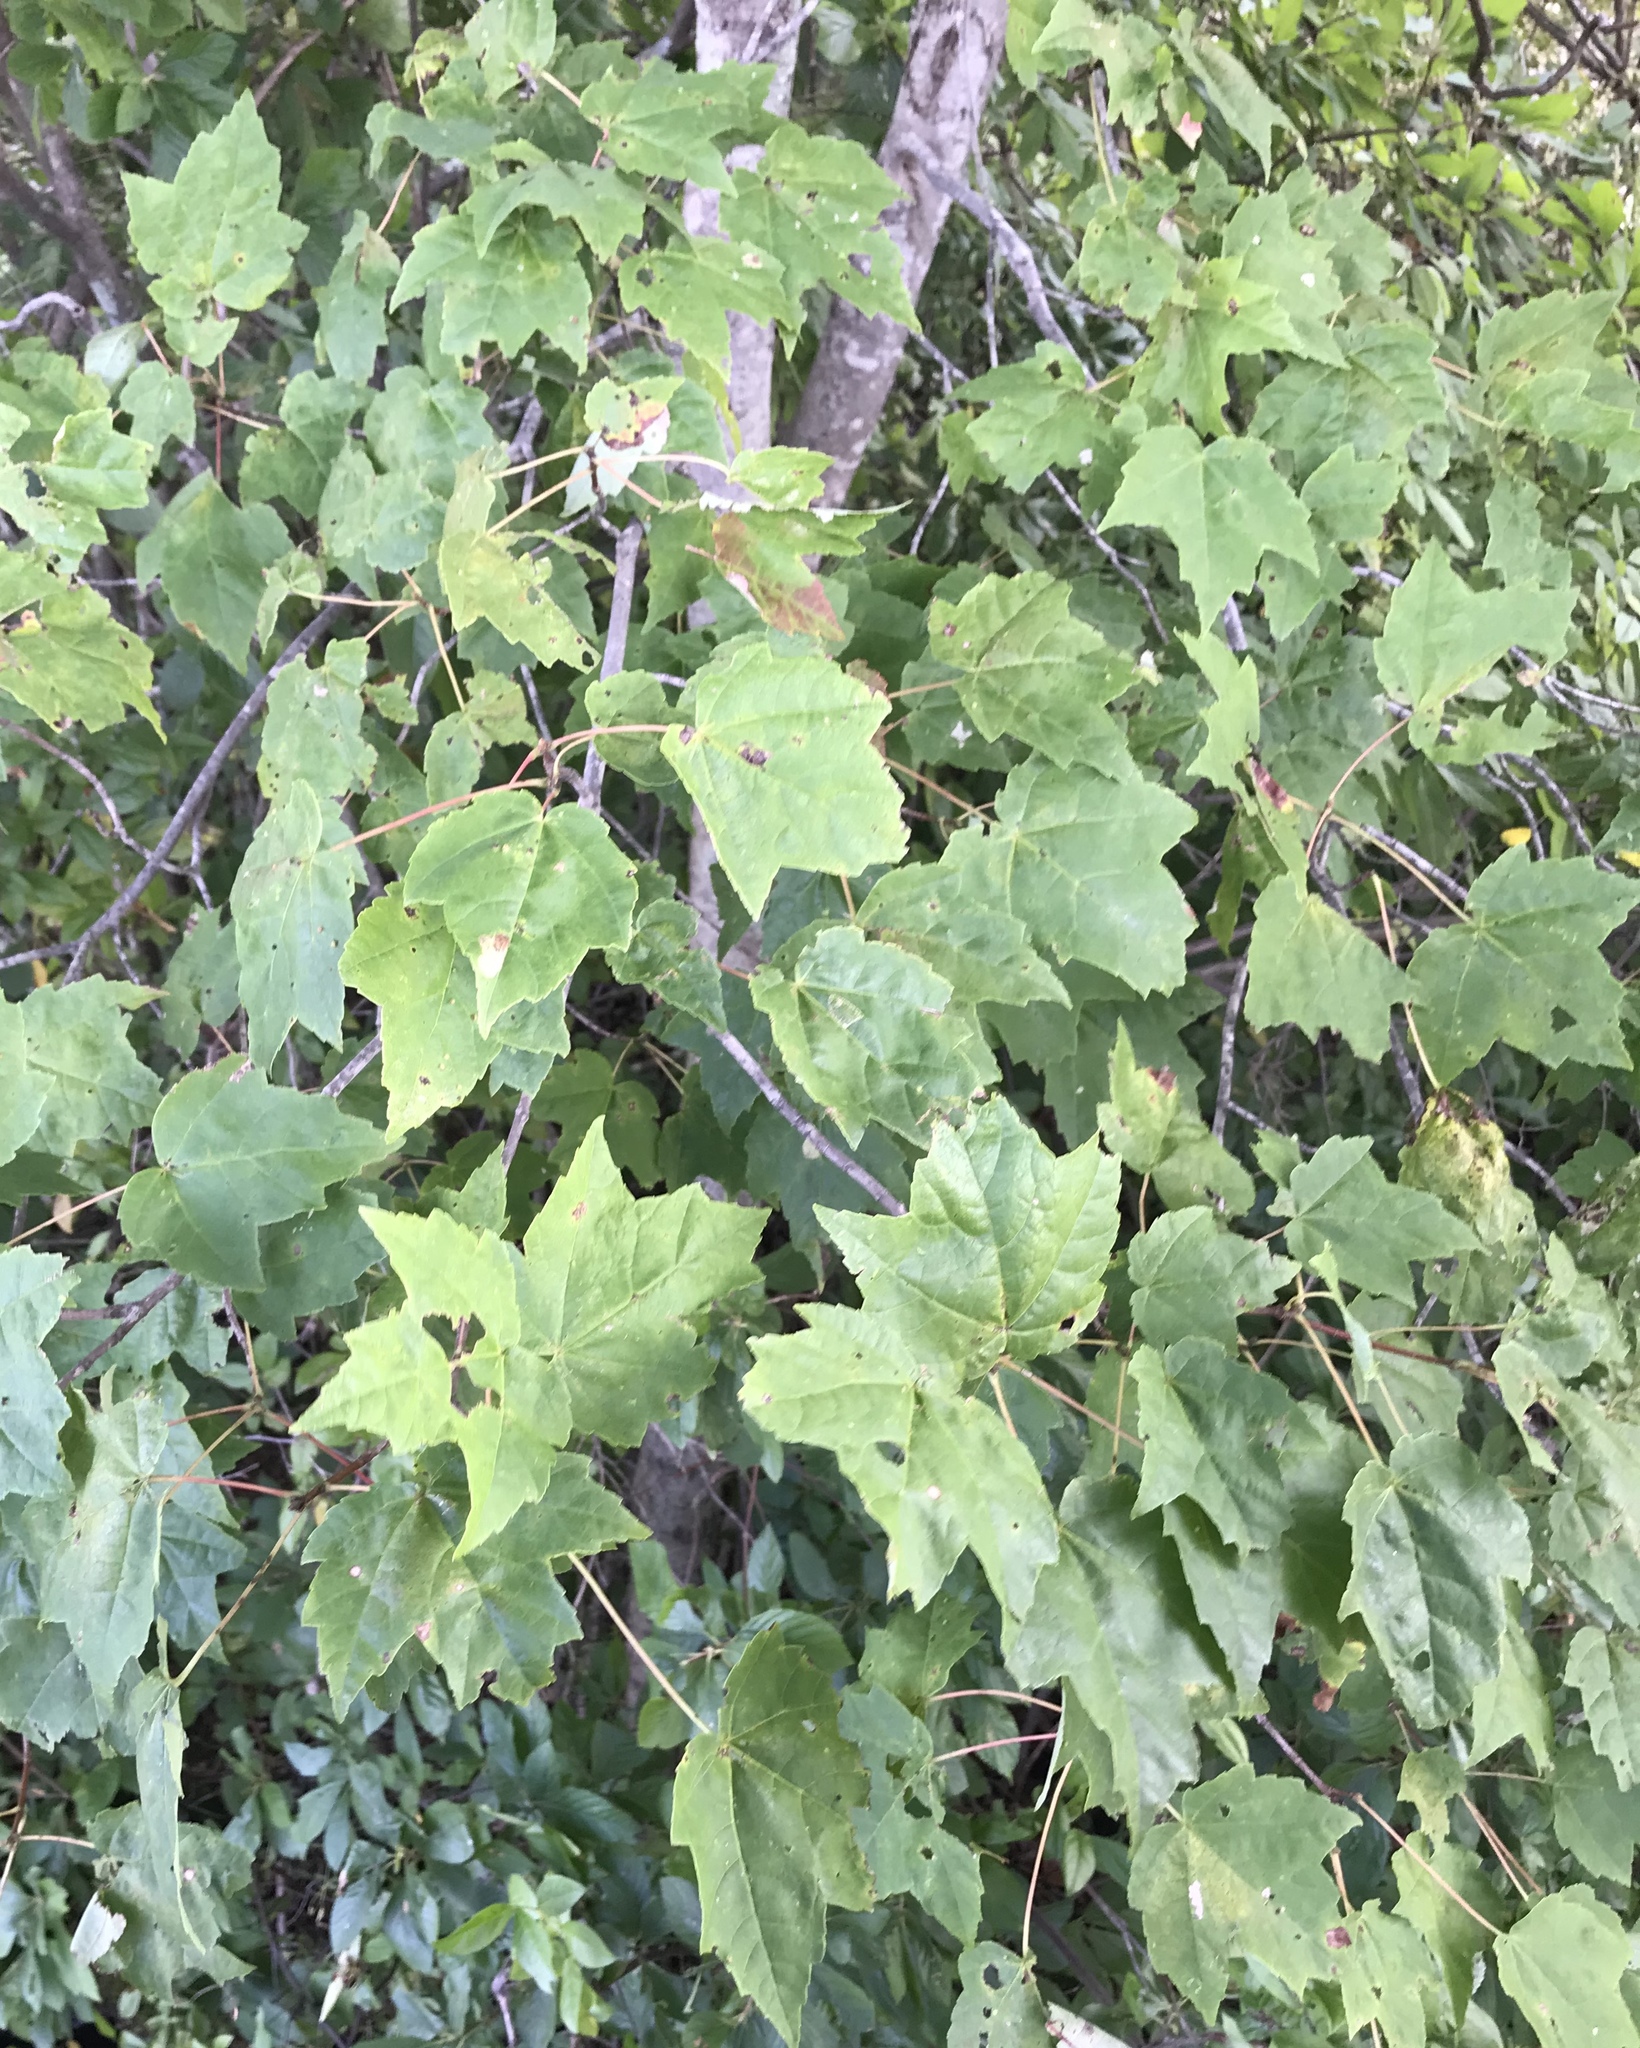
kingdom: Plantae
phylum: Tracheophyta
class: Magnoliopsida
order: Sapindales
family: Sapindaceae
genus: Acer
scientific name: Acer rubrum
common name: Red maple
